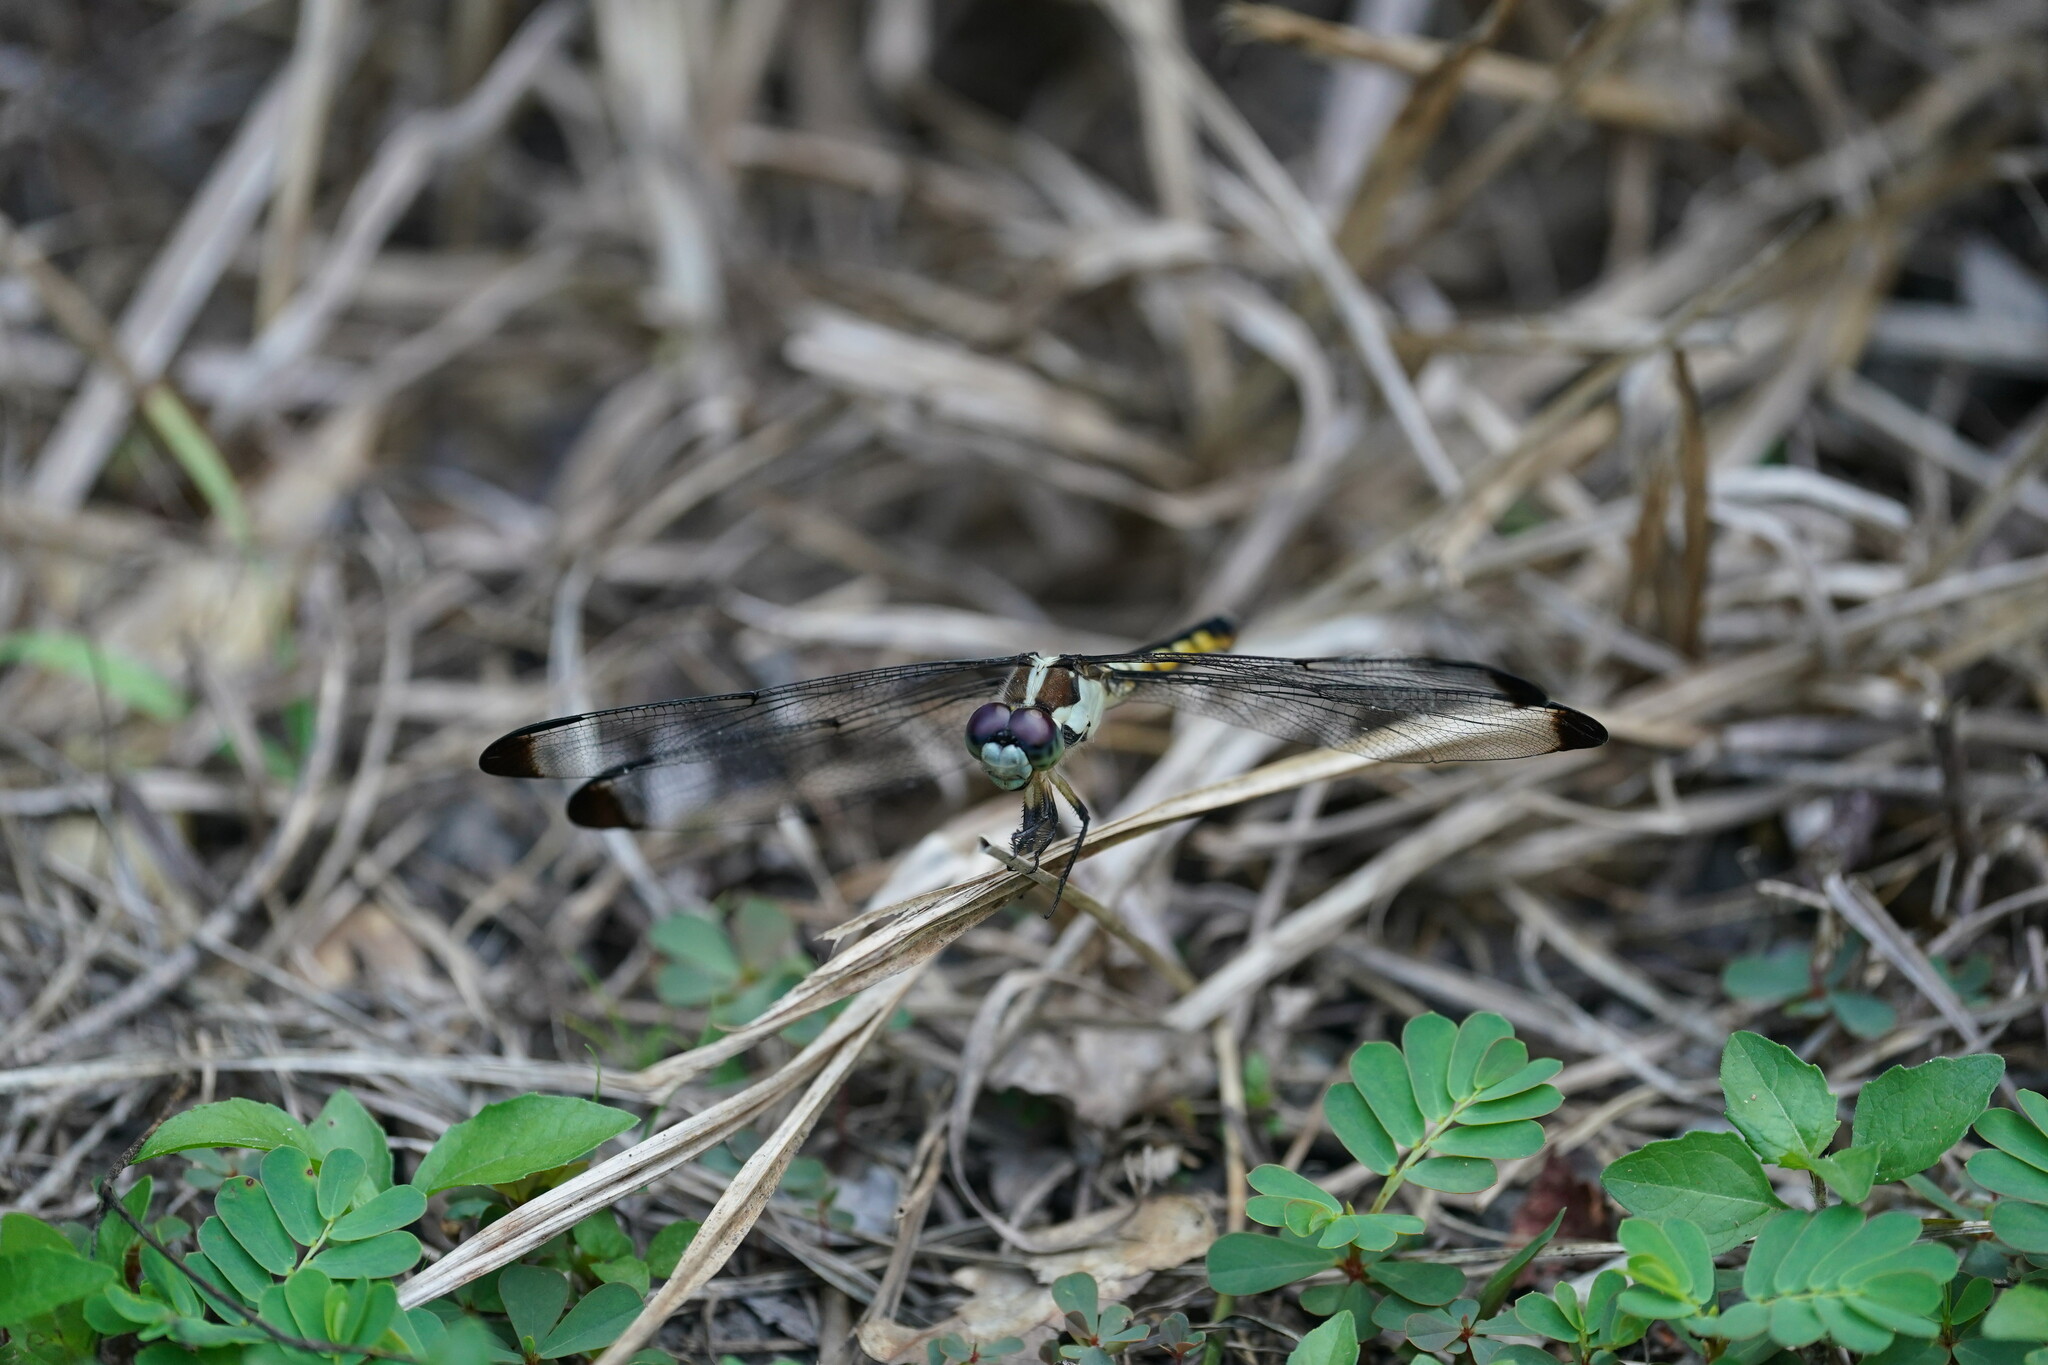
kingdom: Animalia
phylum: Arthropoda
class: Insecta
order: Odonata
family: Libellulidae
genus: Libellula
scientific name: Libellula vibrans
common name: Great blue skimmer
